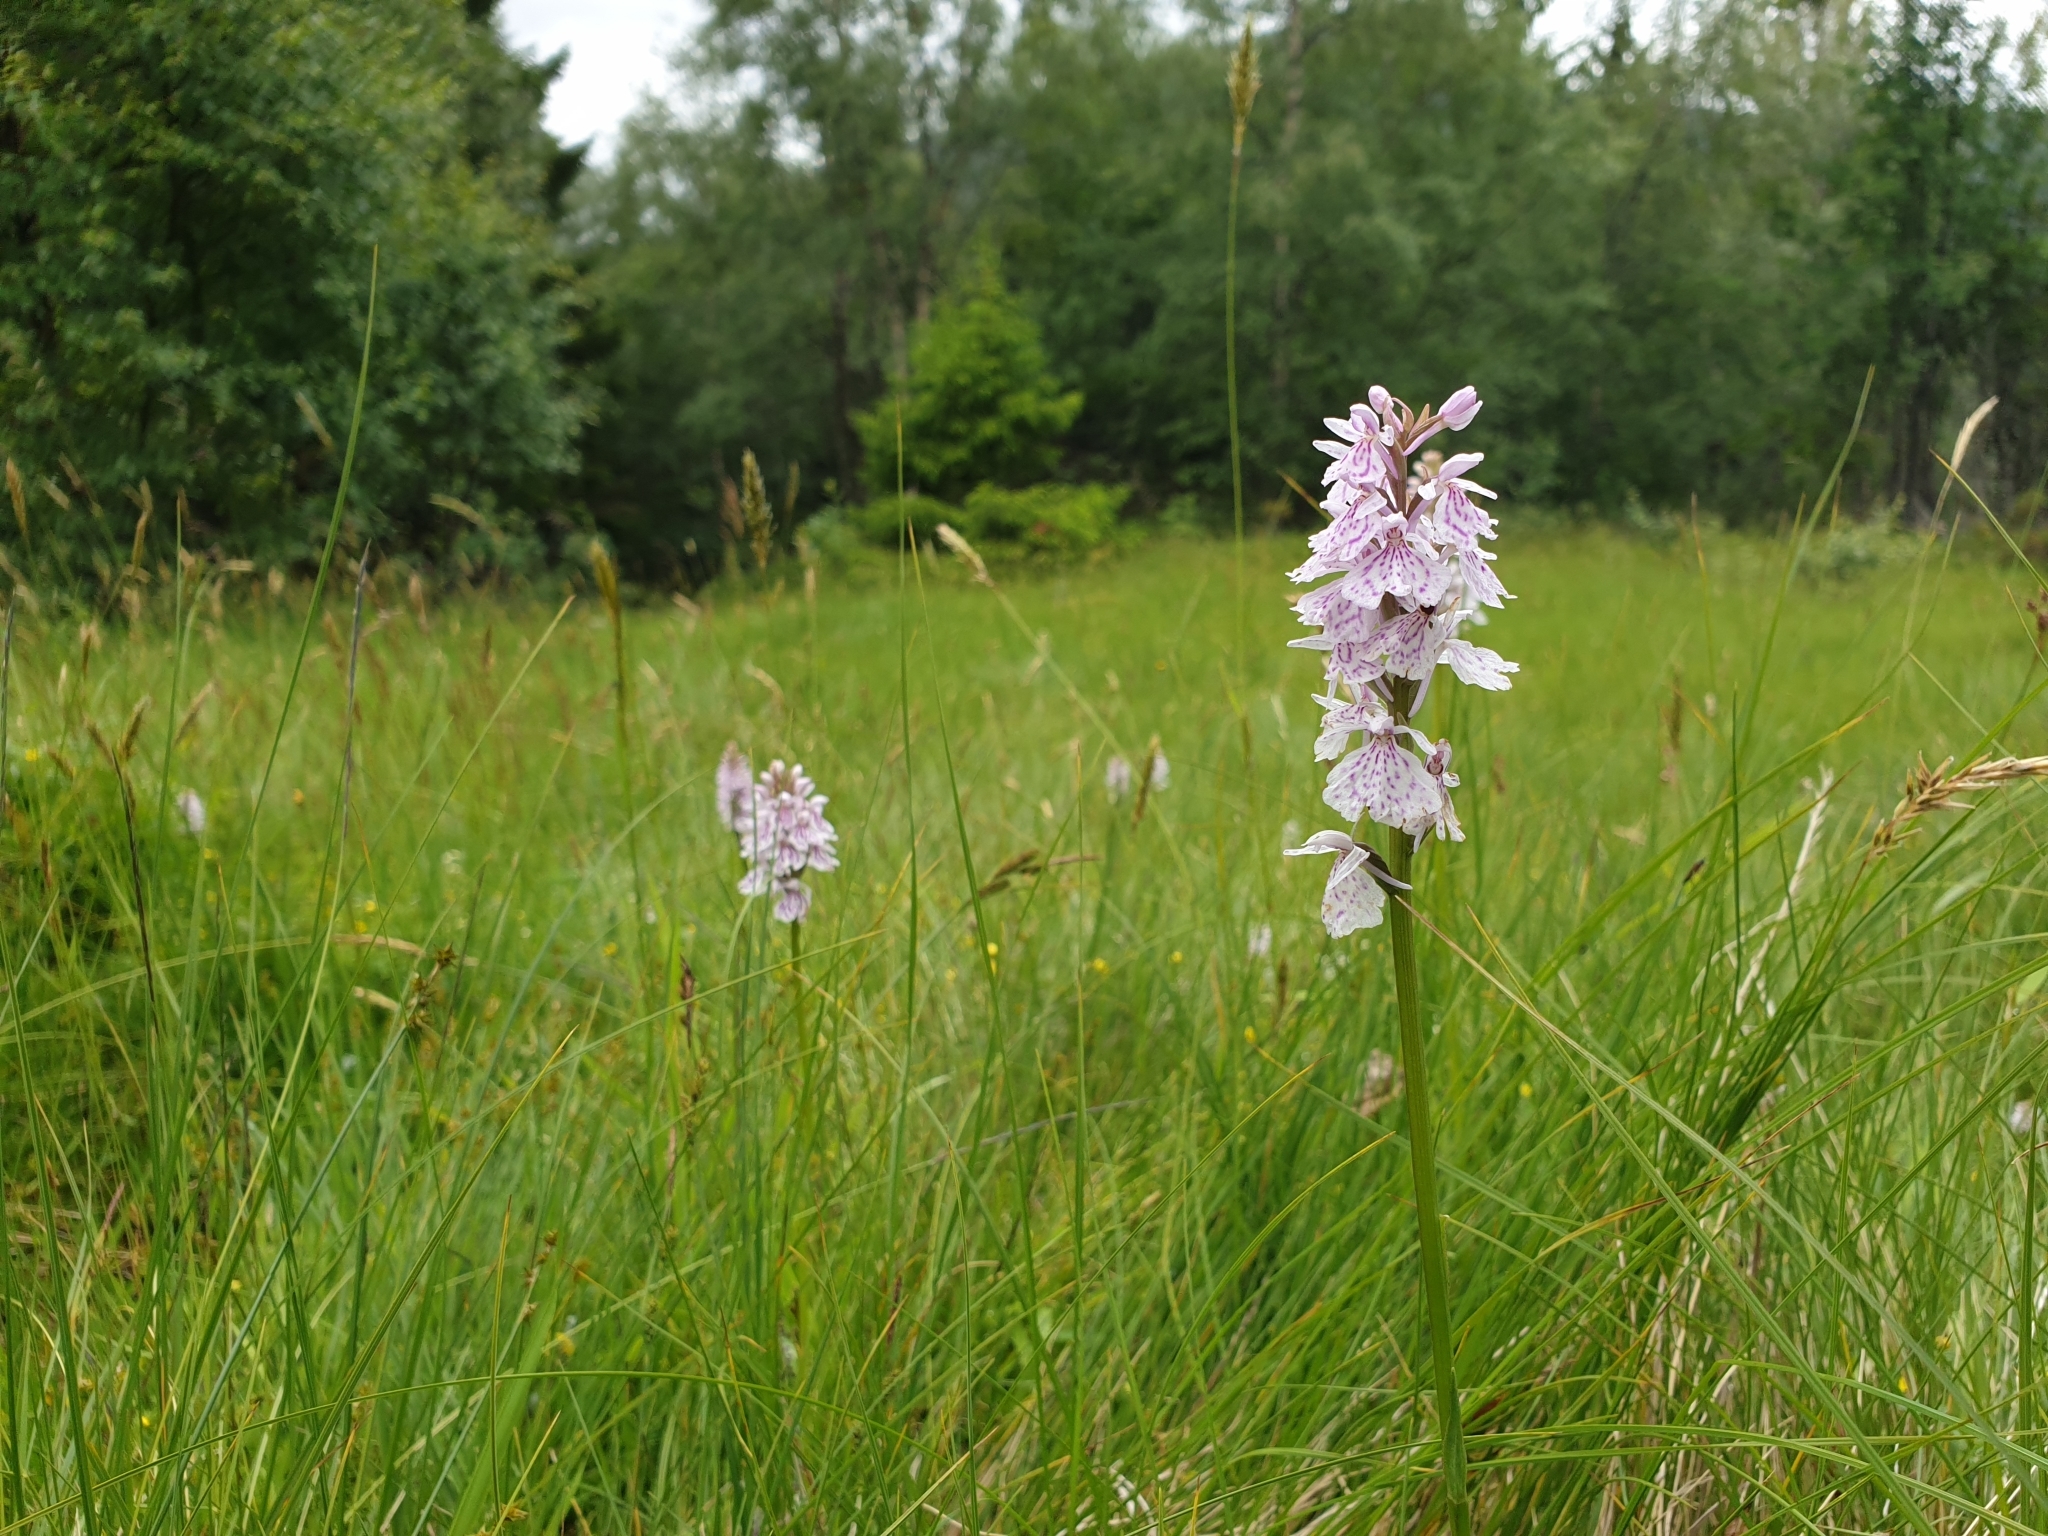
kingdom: Plantae
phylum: Tracheophyta
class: Liliopsida
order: Asparagales
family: Orchidaceae
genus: Dactylorhiza
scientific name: Dactylorhiza maculata
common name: Heath spotted-orchid
